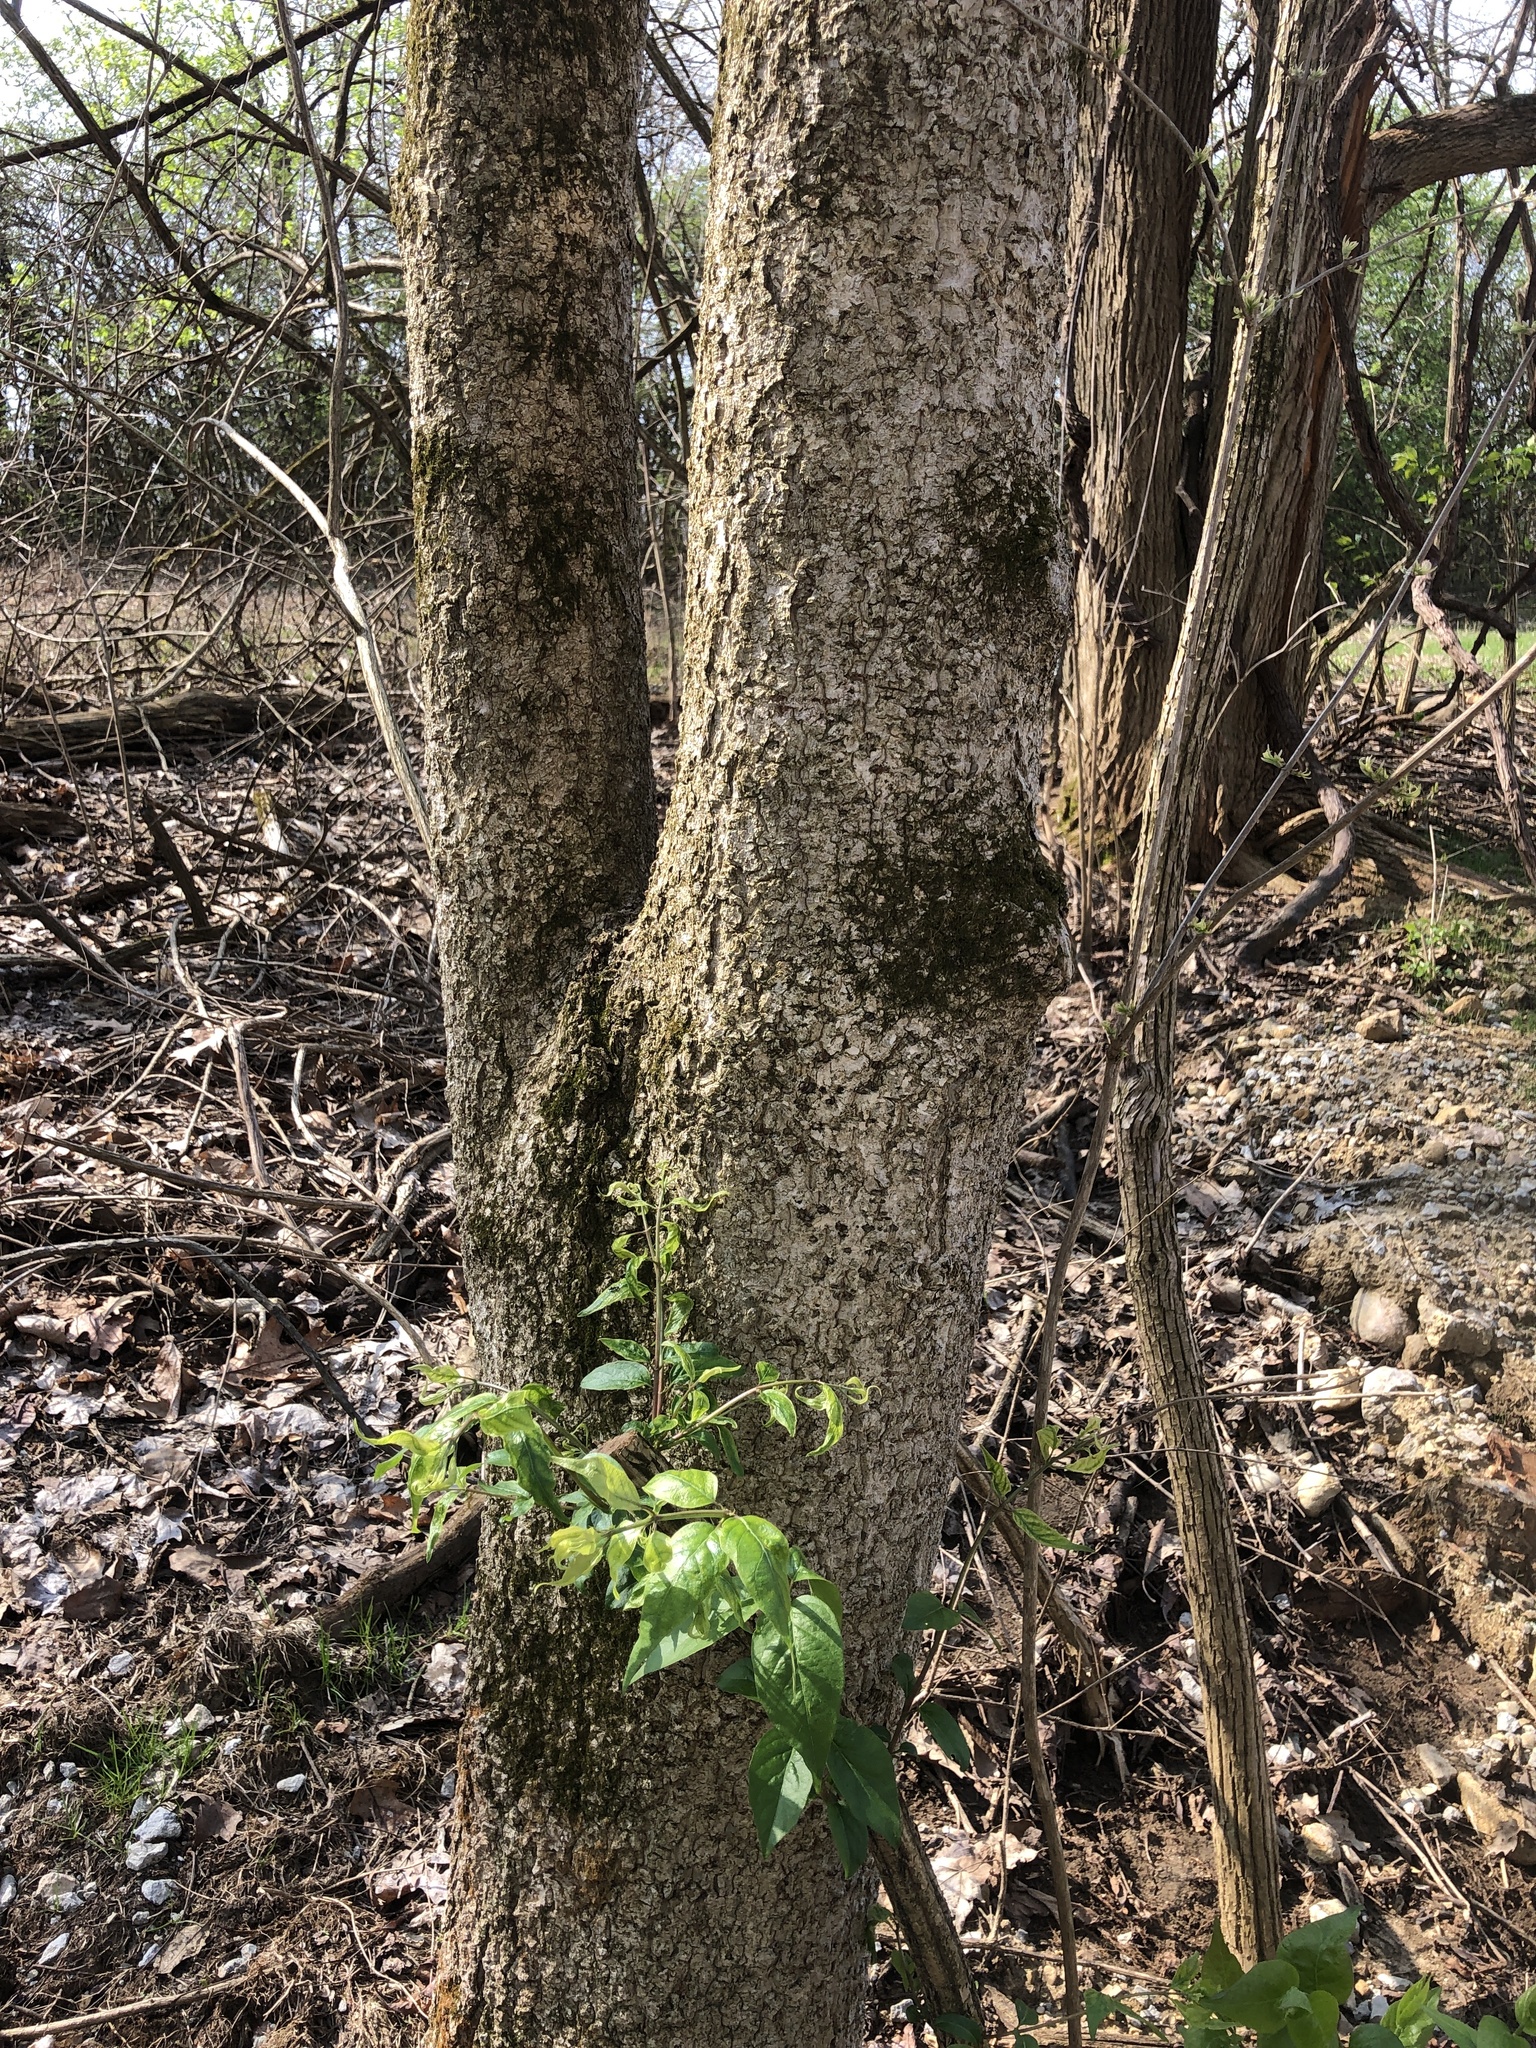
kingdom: Plantae
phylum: Tracheophyta
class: Magnoliopsida
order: Sapindales
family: Sapindaceae
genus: Aesculus
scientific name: Aesculus glabra
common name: Ohio buckeye
